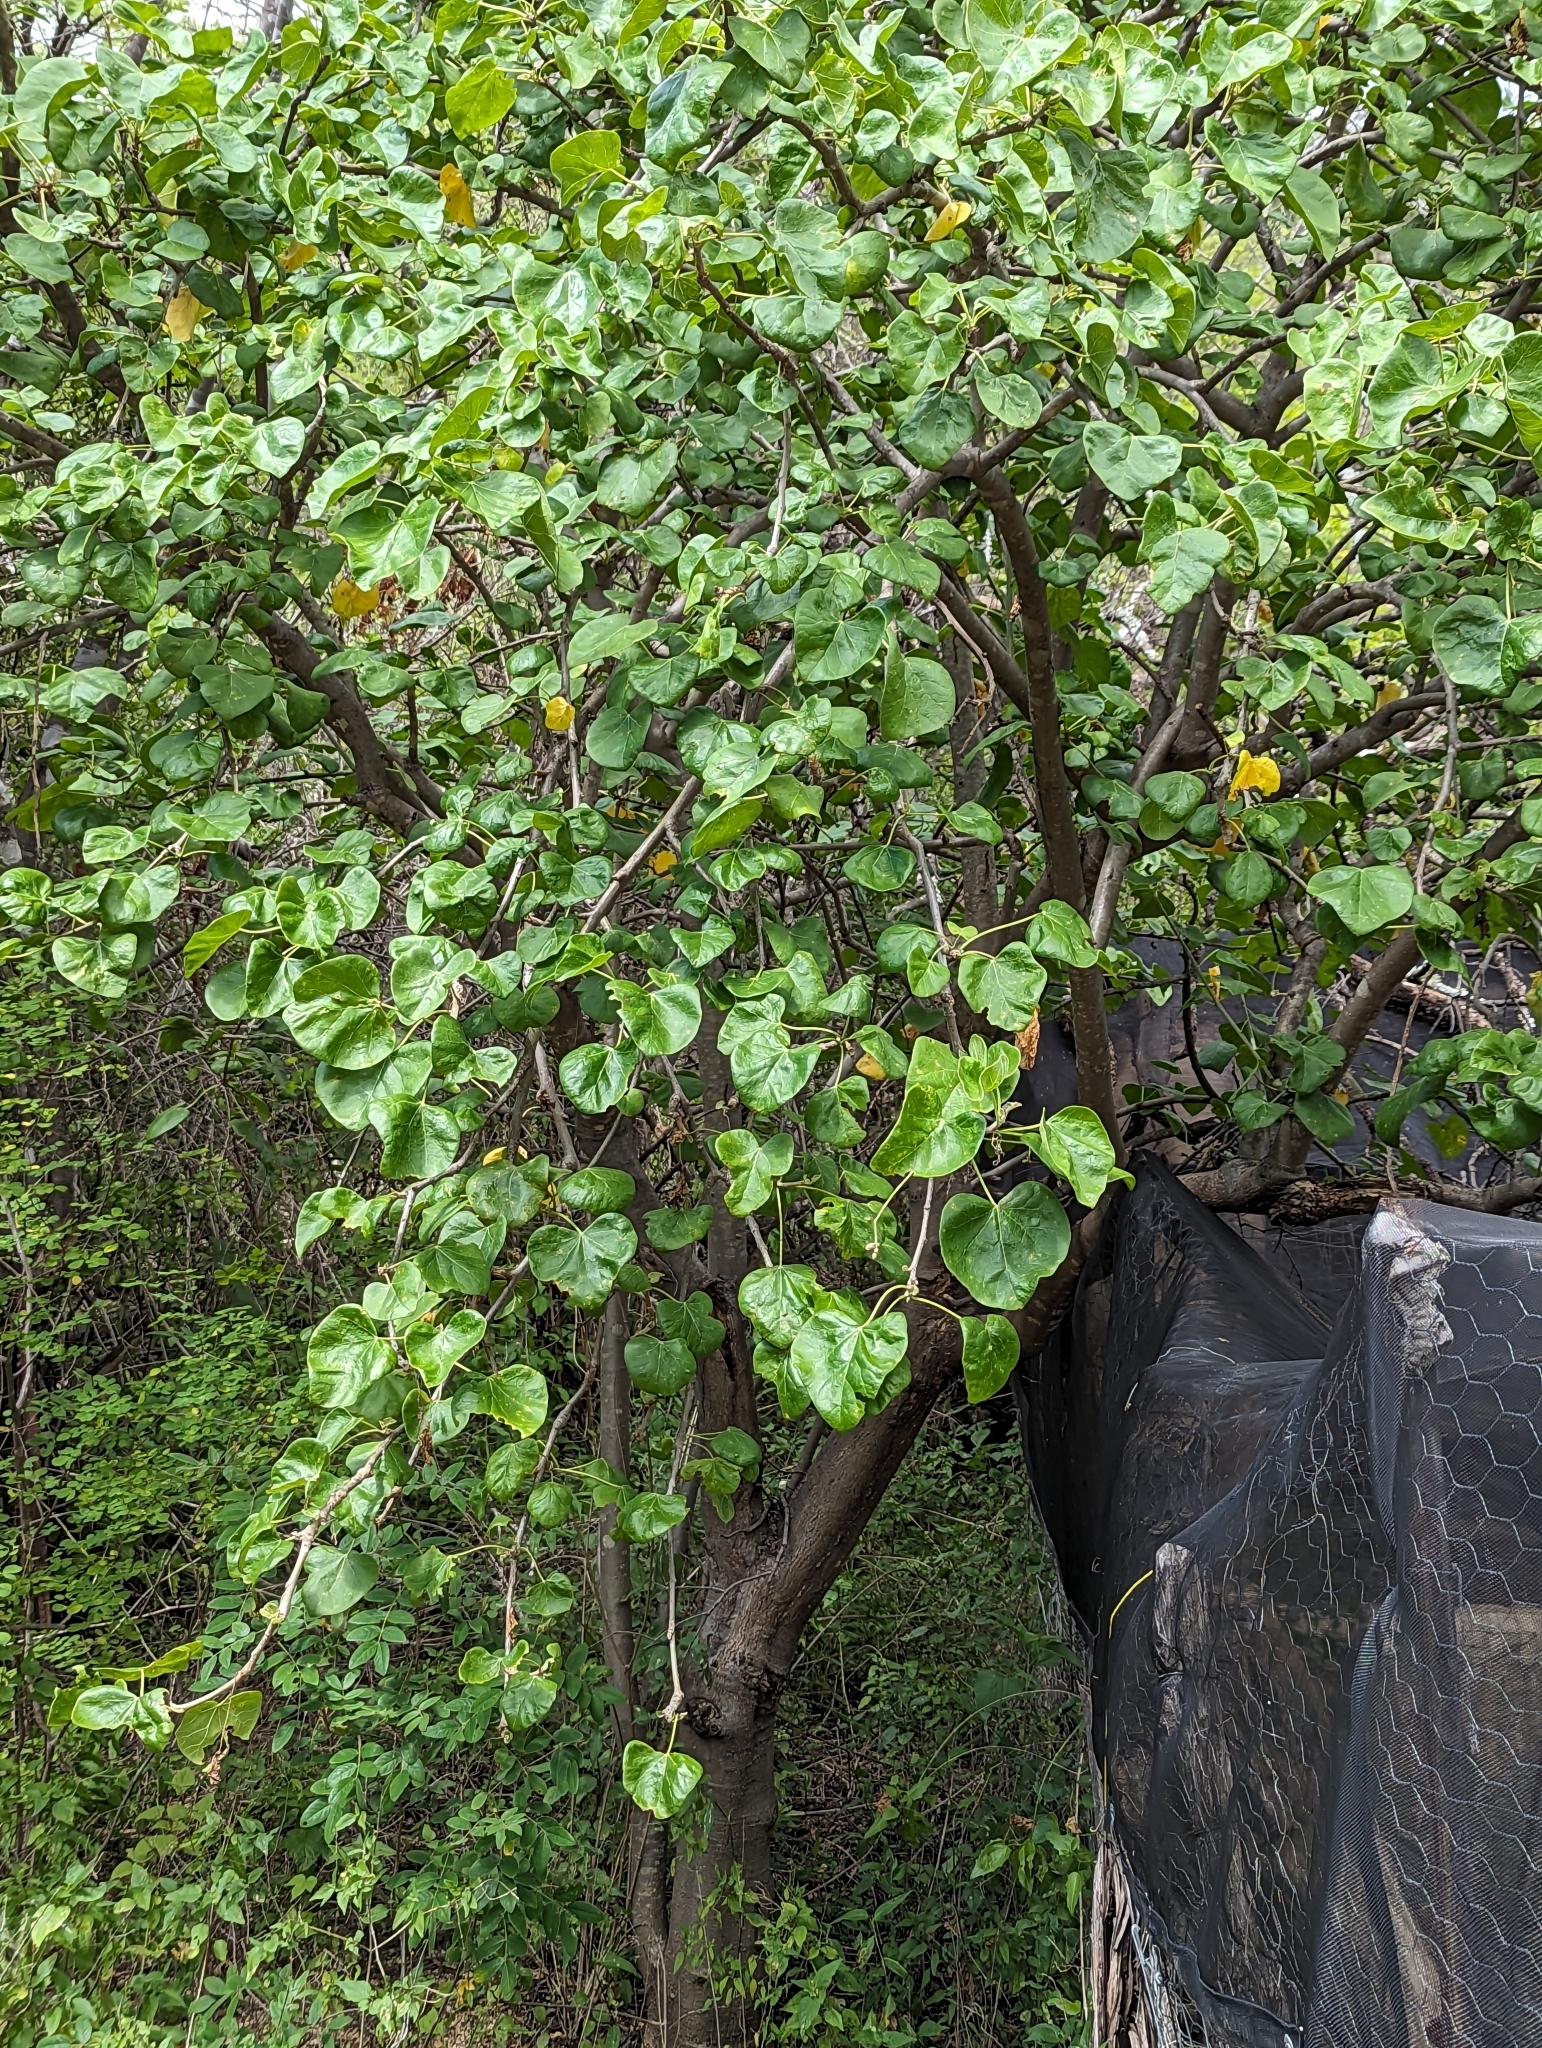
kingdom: Plantae
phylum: Tracheophyta
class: Magnoliopsida
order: Malpighiales
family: Euphorbiaceae
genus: Jatropha
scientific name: Jatropha cinerea
